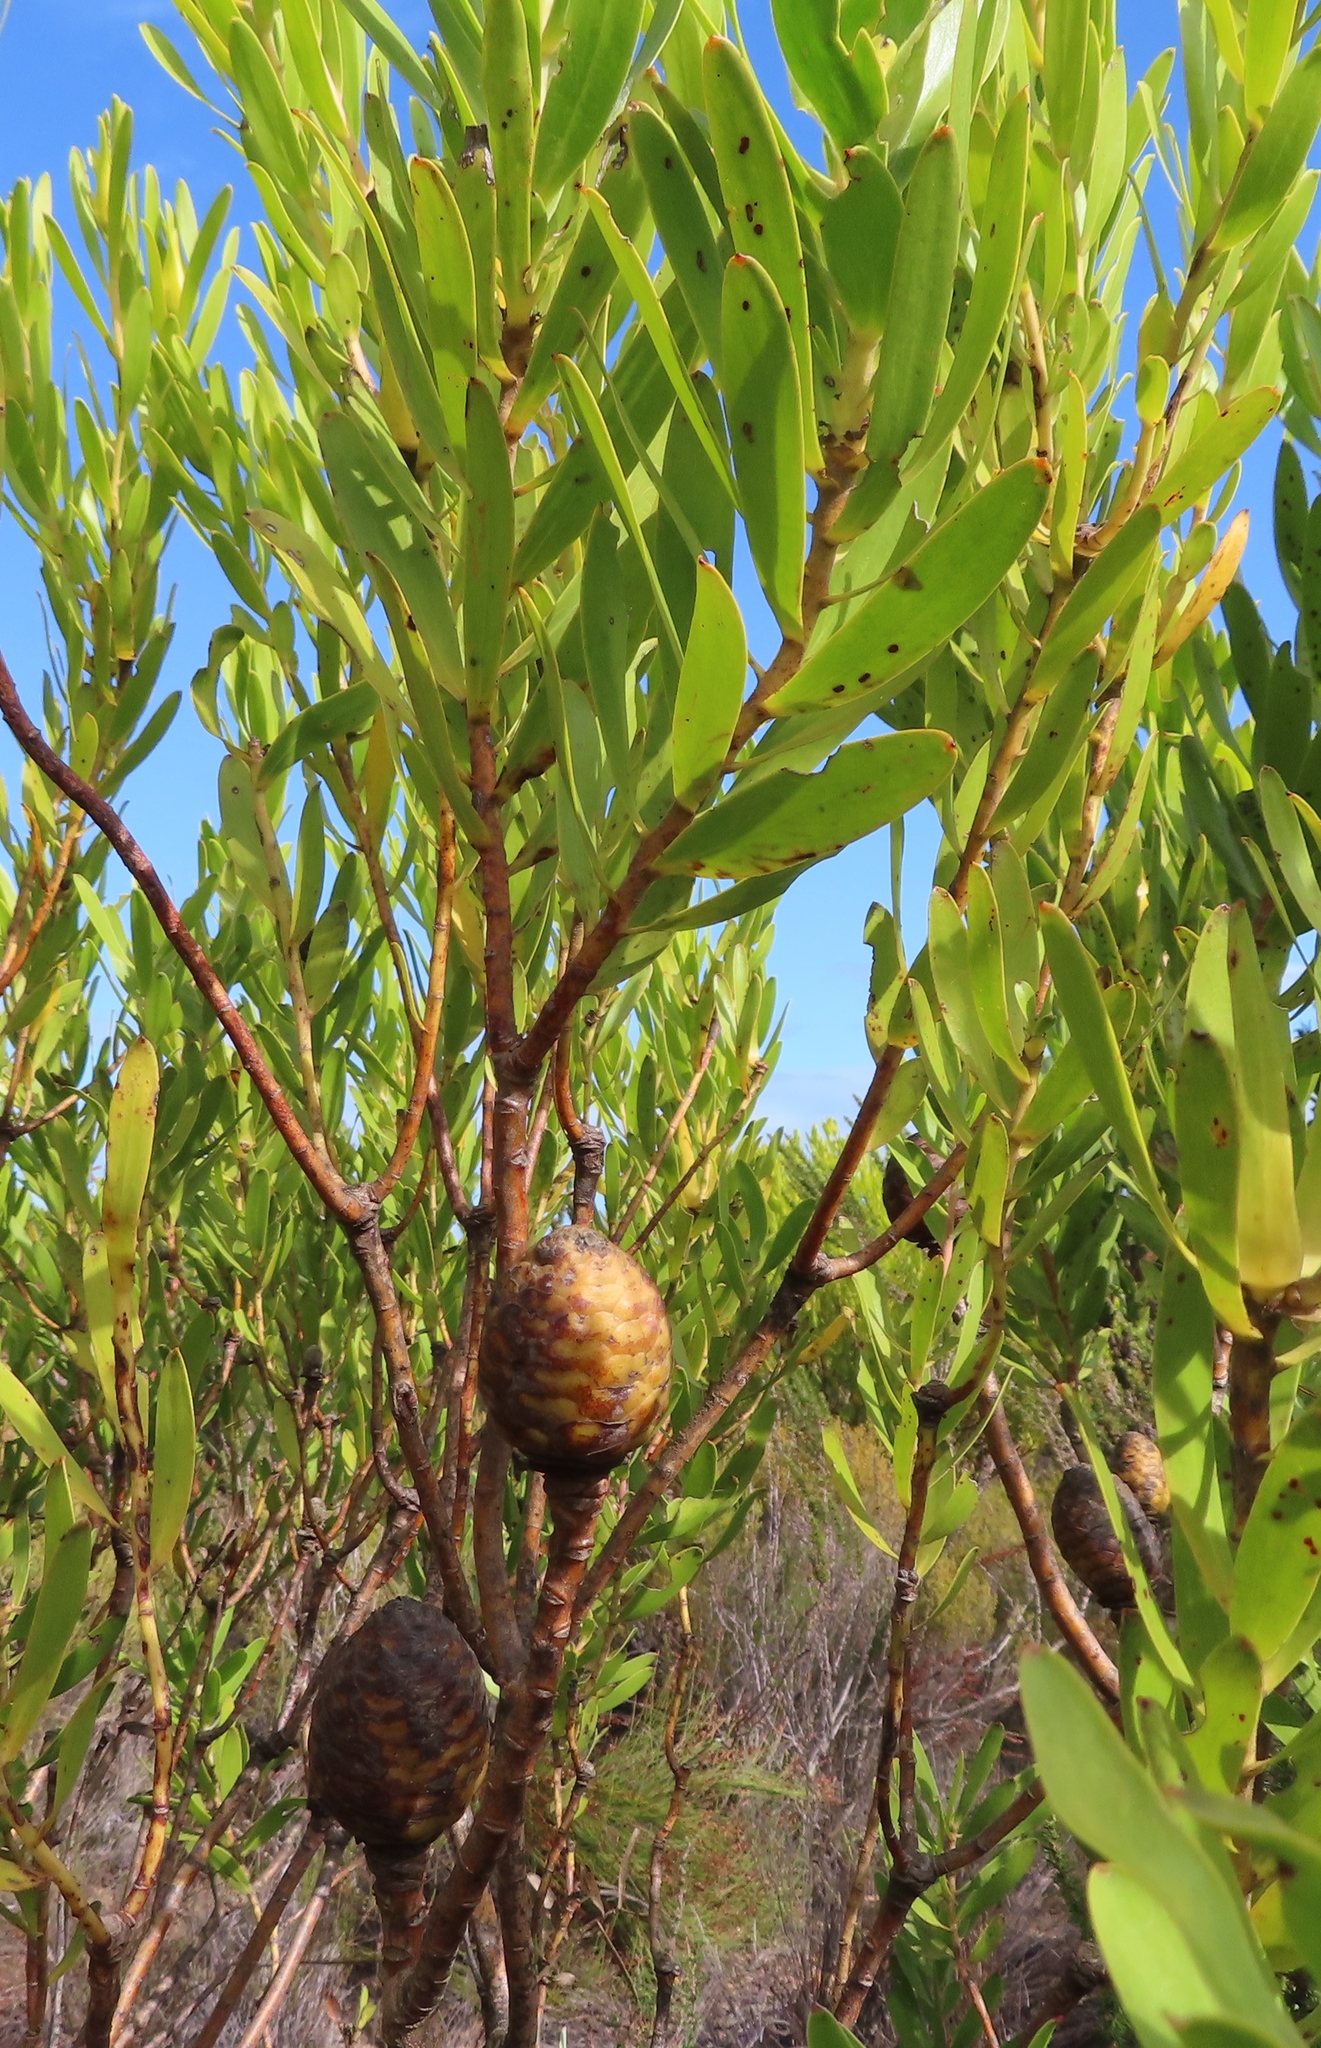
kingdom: Plantae
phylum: Tracheophyta
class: Magnoliopsida
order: Proteales
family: Proteaceae
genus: Leucadendron
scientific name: Leucadendron laureolum
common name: Golden sunshinebush
